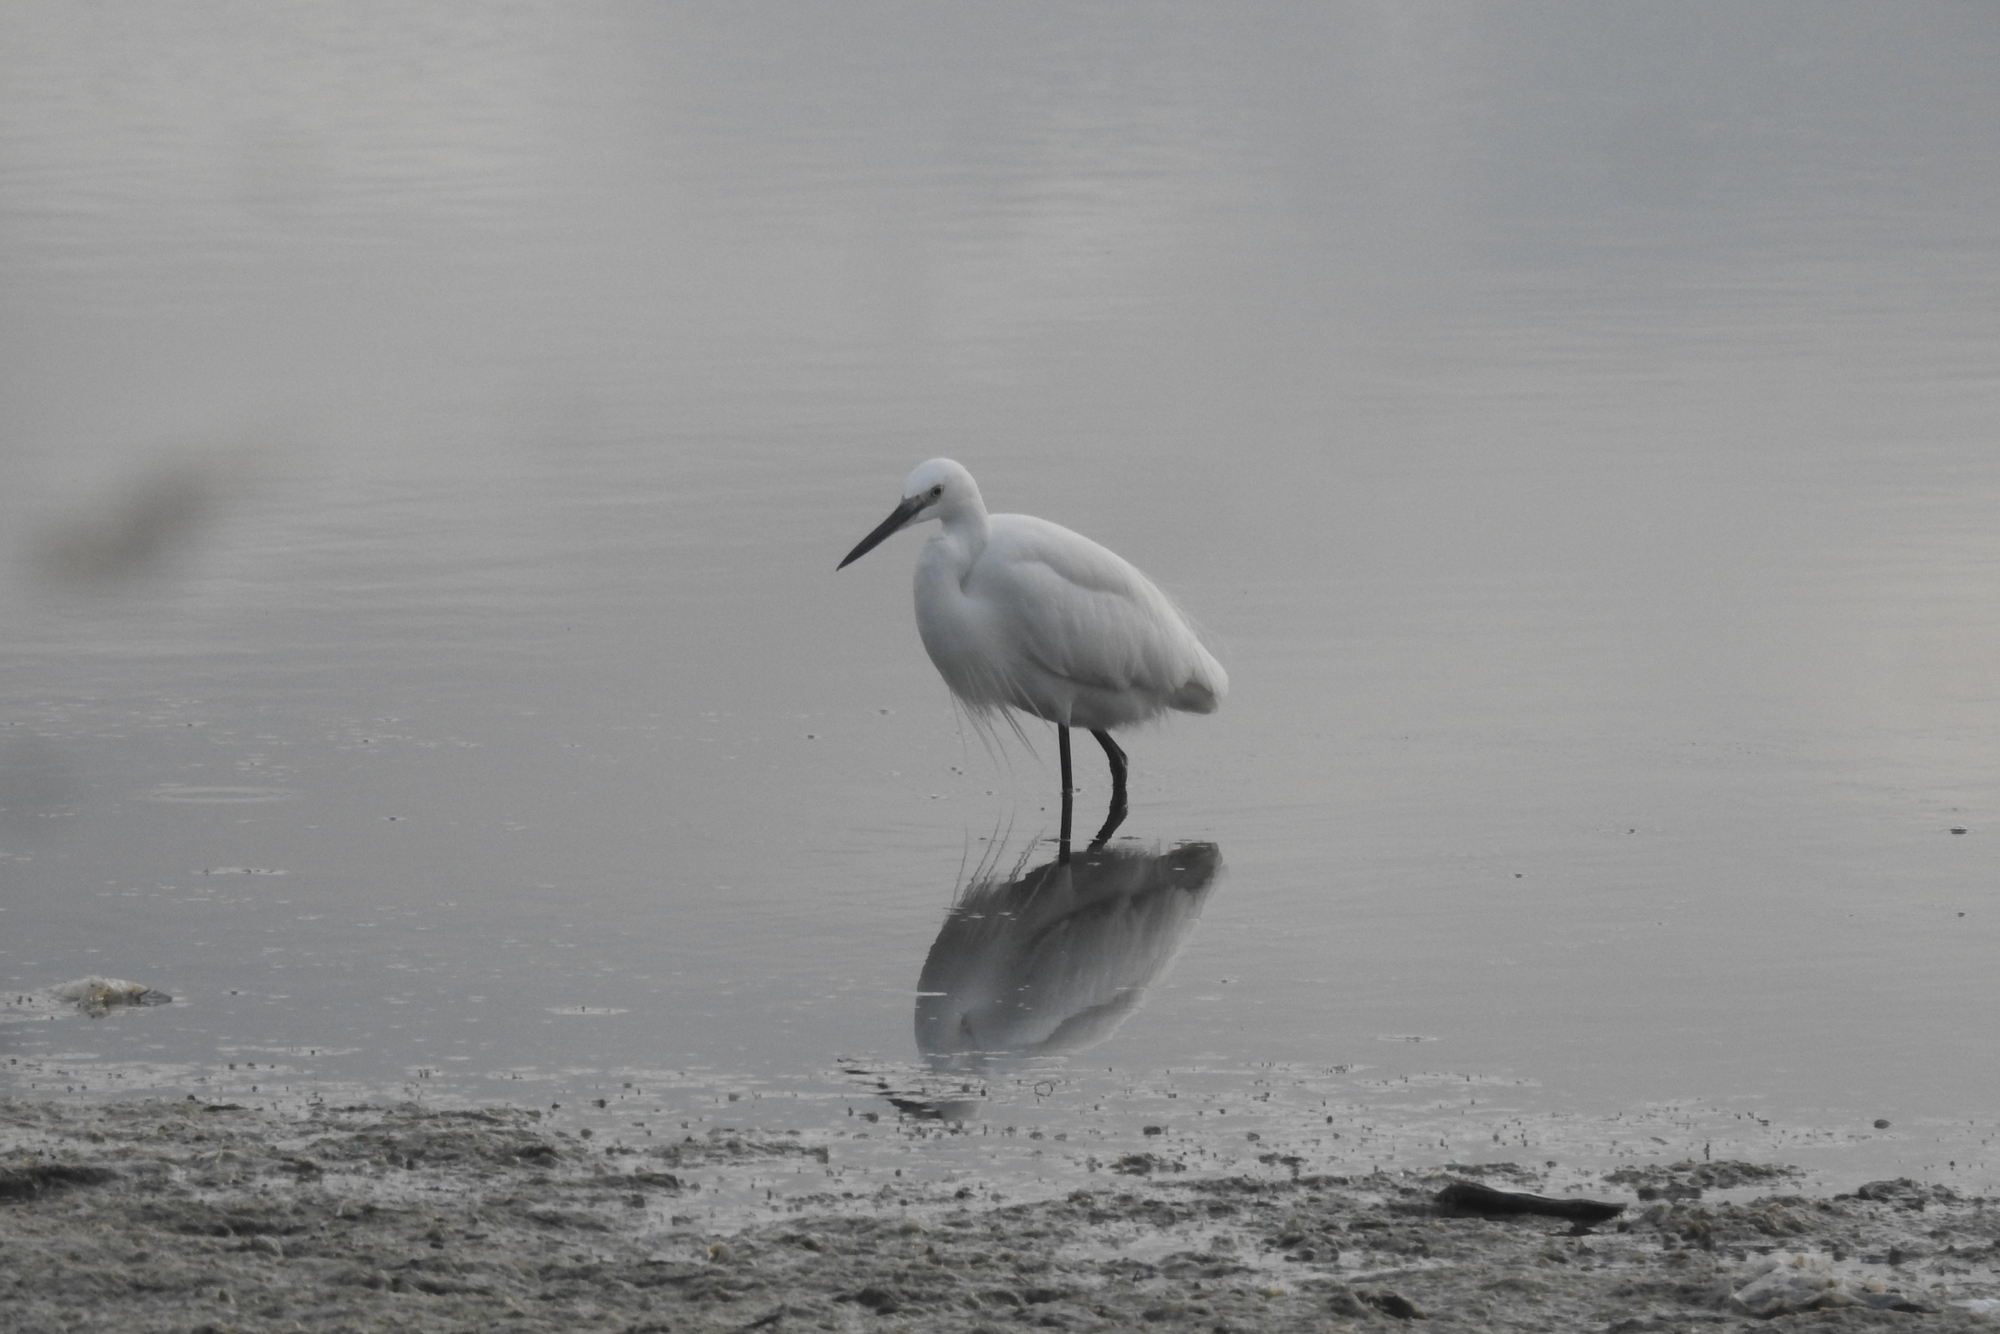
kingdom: Animalia
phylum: Chordata
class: Aves
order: Pelecaniformes
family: Ardeidae
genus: Egretta
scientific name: Egretta garzetta
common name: Little egret
